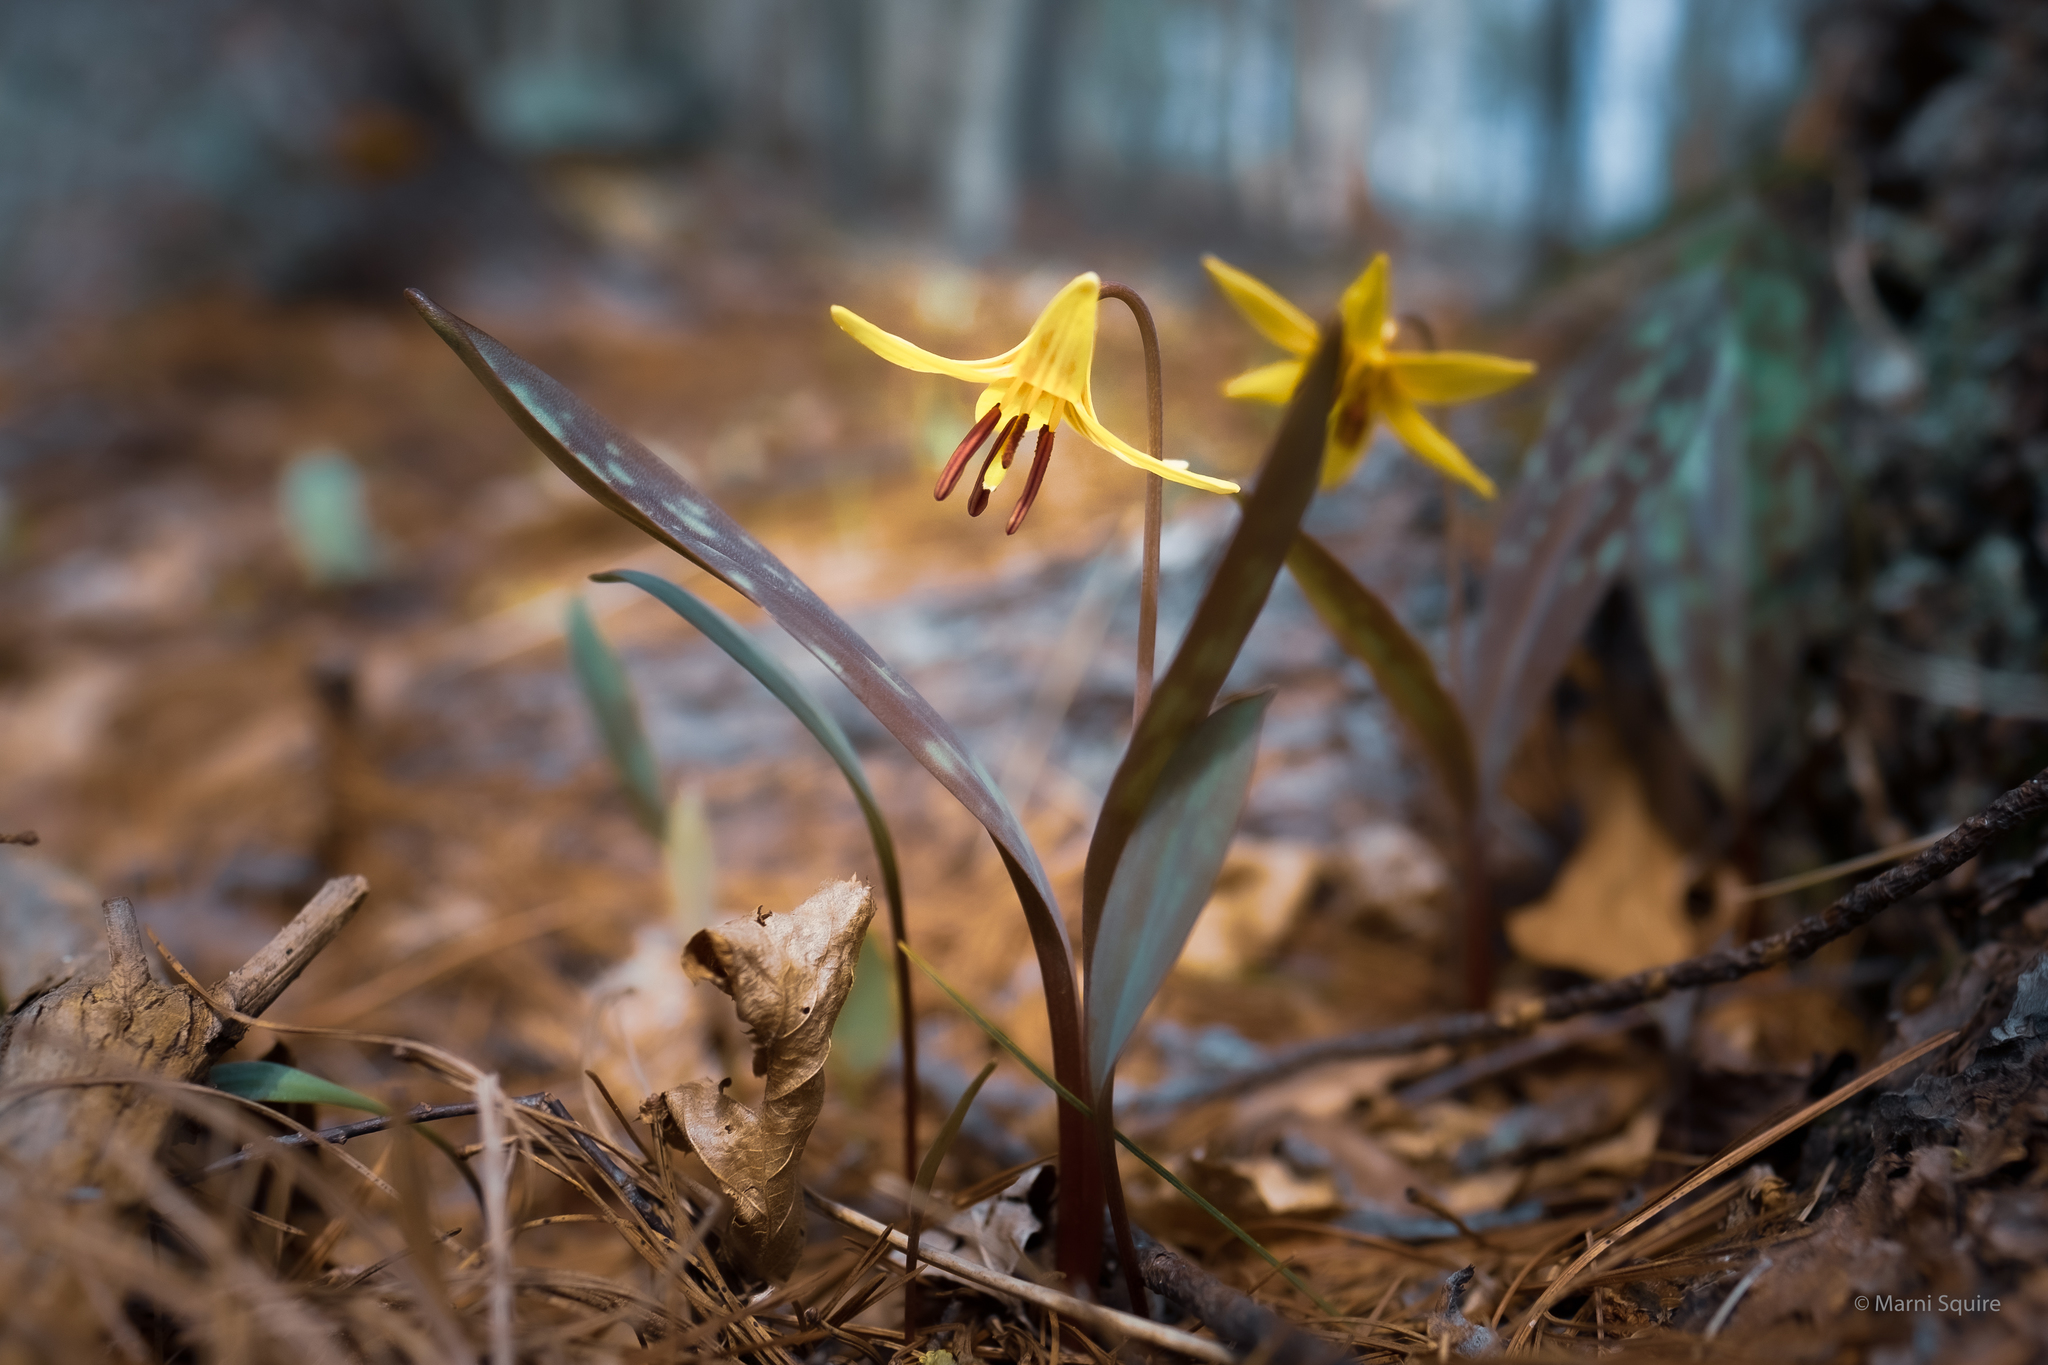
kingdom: Plantae
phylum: Tracheophyta
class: Liliopsida
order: Liliales
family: Liliaceae
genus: Erythronium
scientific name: Erythronium americanum
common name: Yellow adder's-tongue
